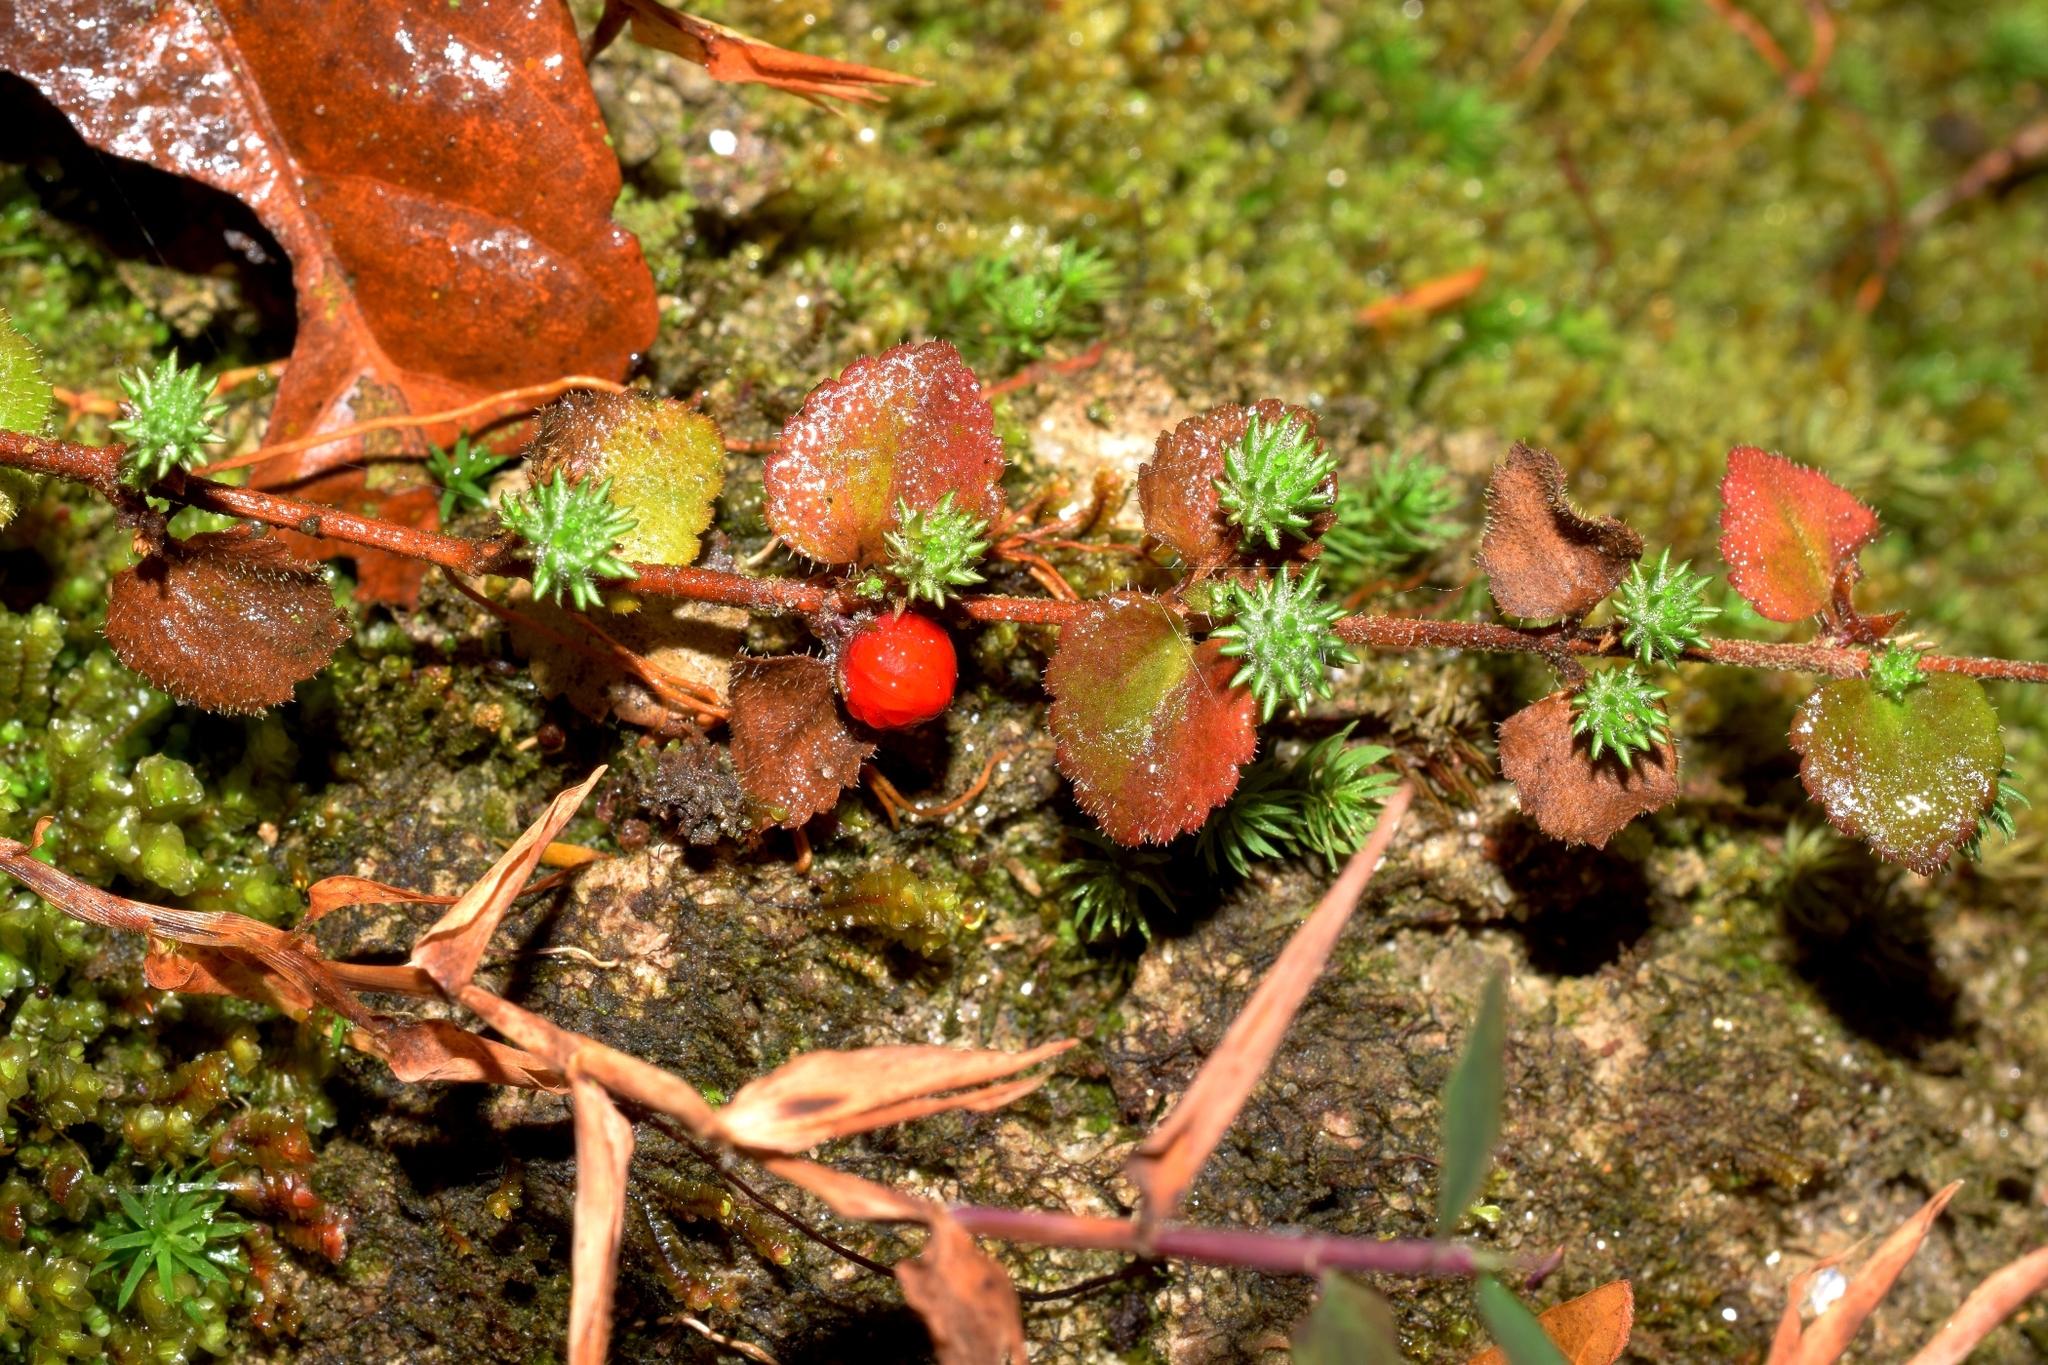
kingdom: Plantae
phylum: Tracheophyta
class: Magnoliopsida
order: Lamiales
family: Plantaginaceae
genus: Hemiphragma
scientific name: Hemiphragma heterophyllum
